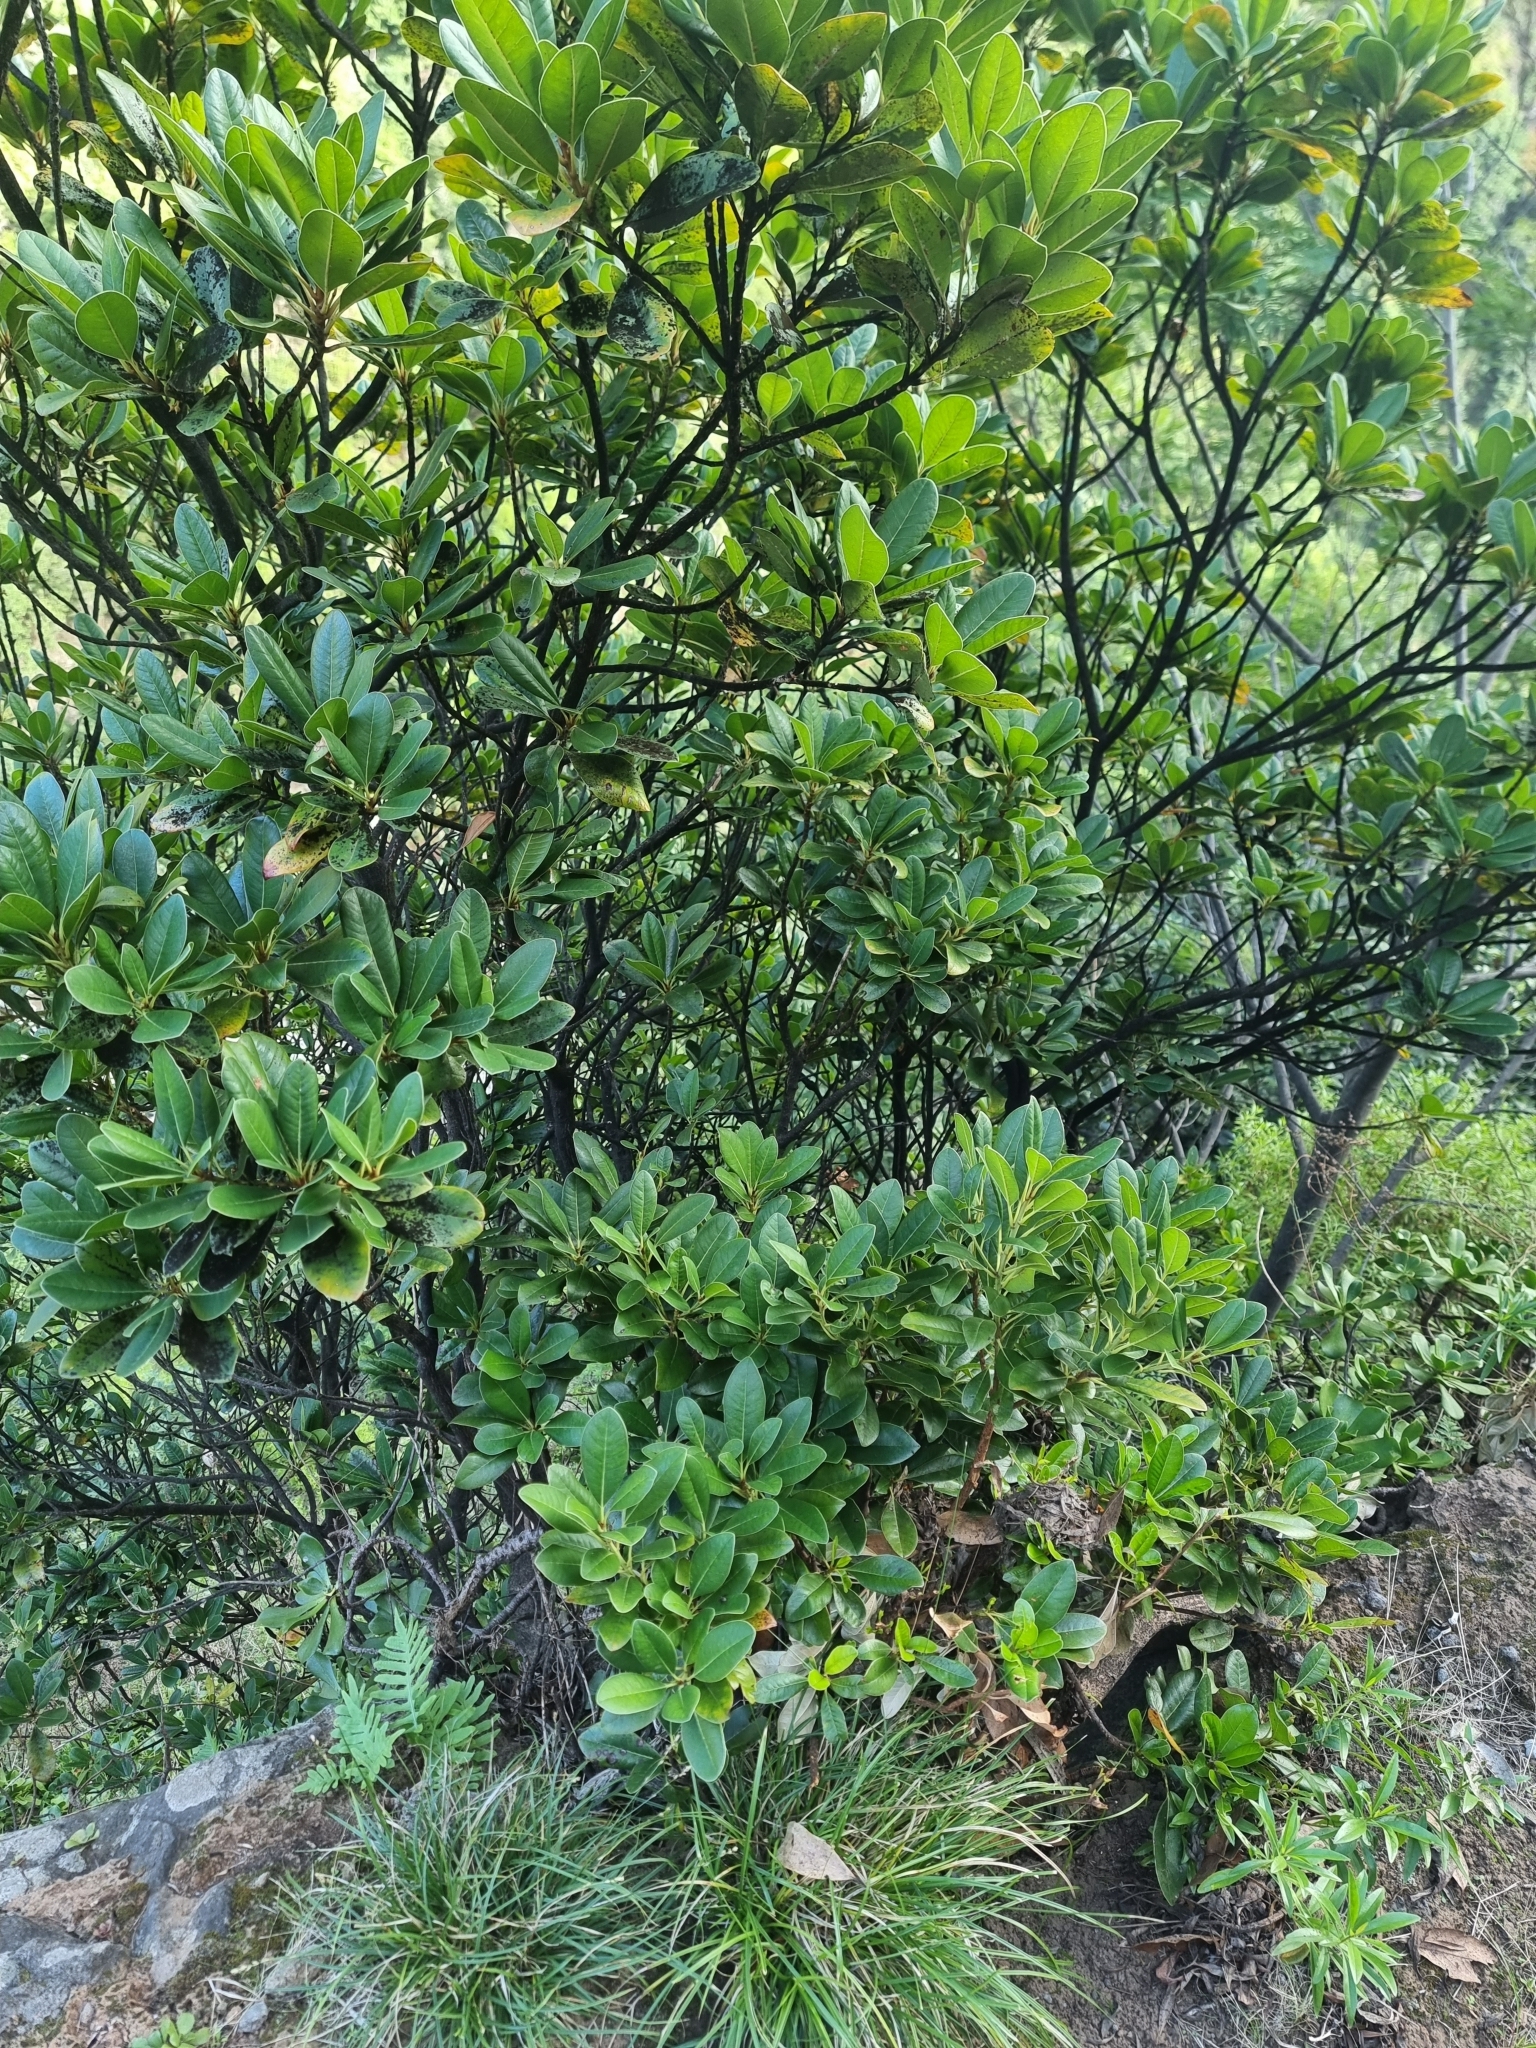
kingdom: Plantae
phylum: Tracheophyta
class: Magnoliopsida
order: Ericales
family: Sapotaceae
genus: Sideroxylon
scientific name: Sideroxylon mirmulans
